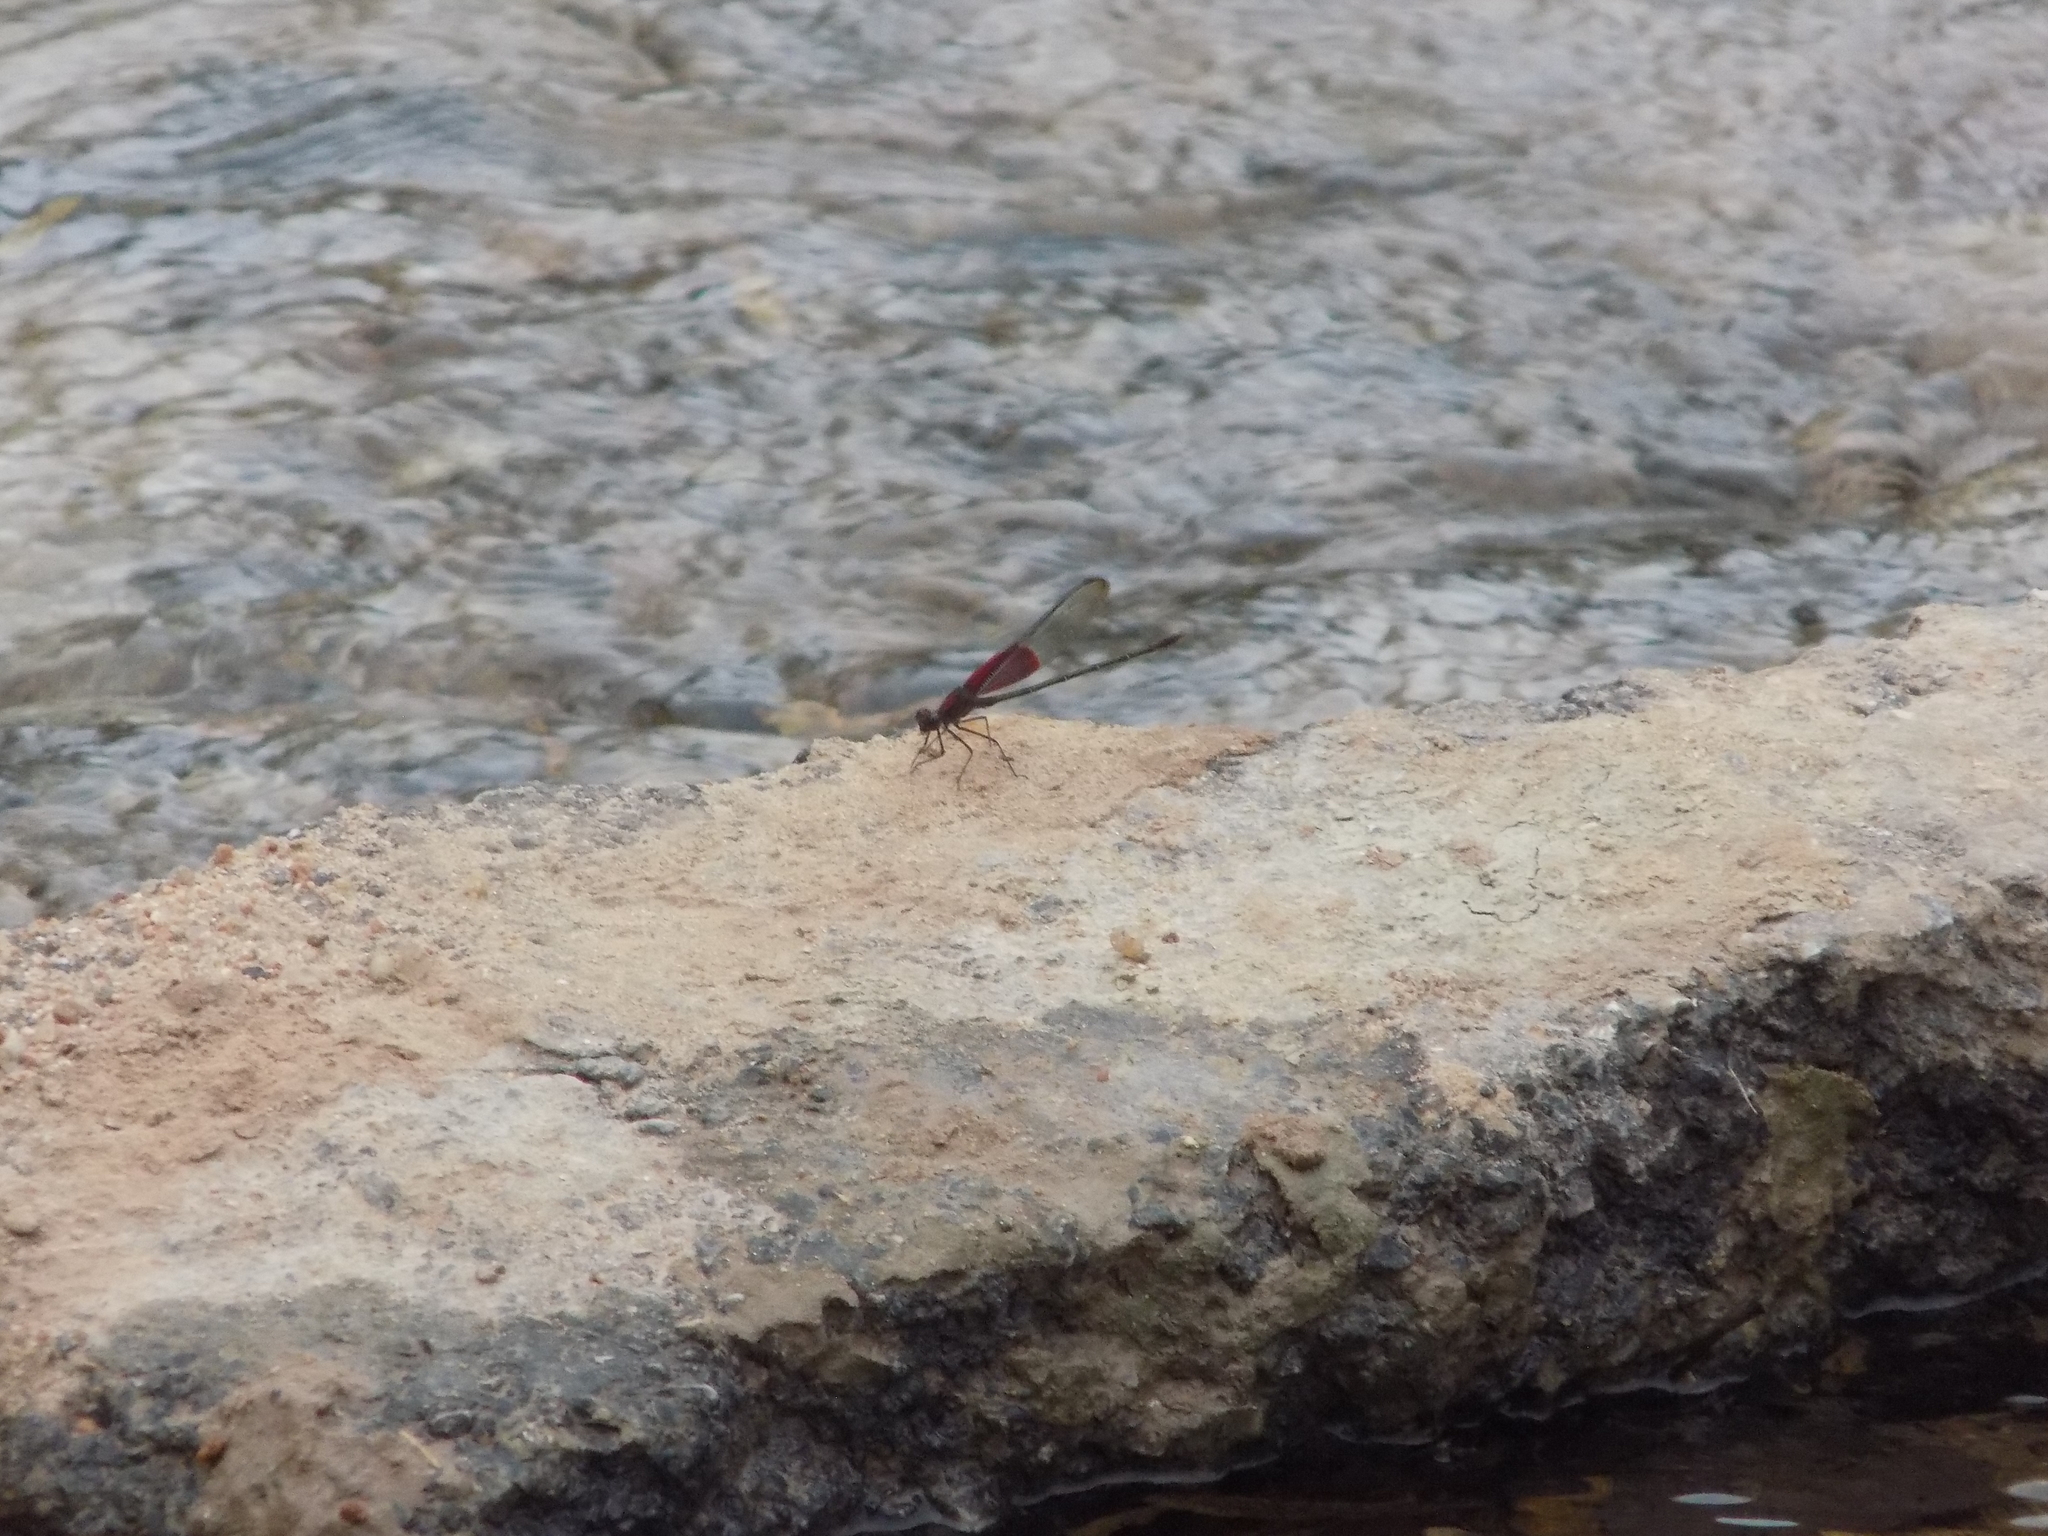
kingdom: Animalia
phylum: Arthropoda
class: Insecta
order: Odonata
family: Calopterygidae
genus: Hetaerina
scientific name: Hetaerina americana
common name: American rubyspot
